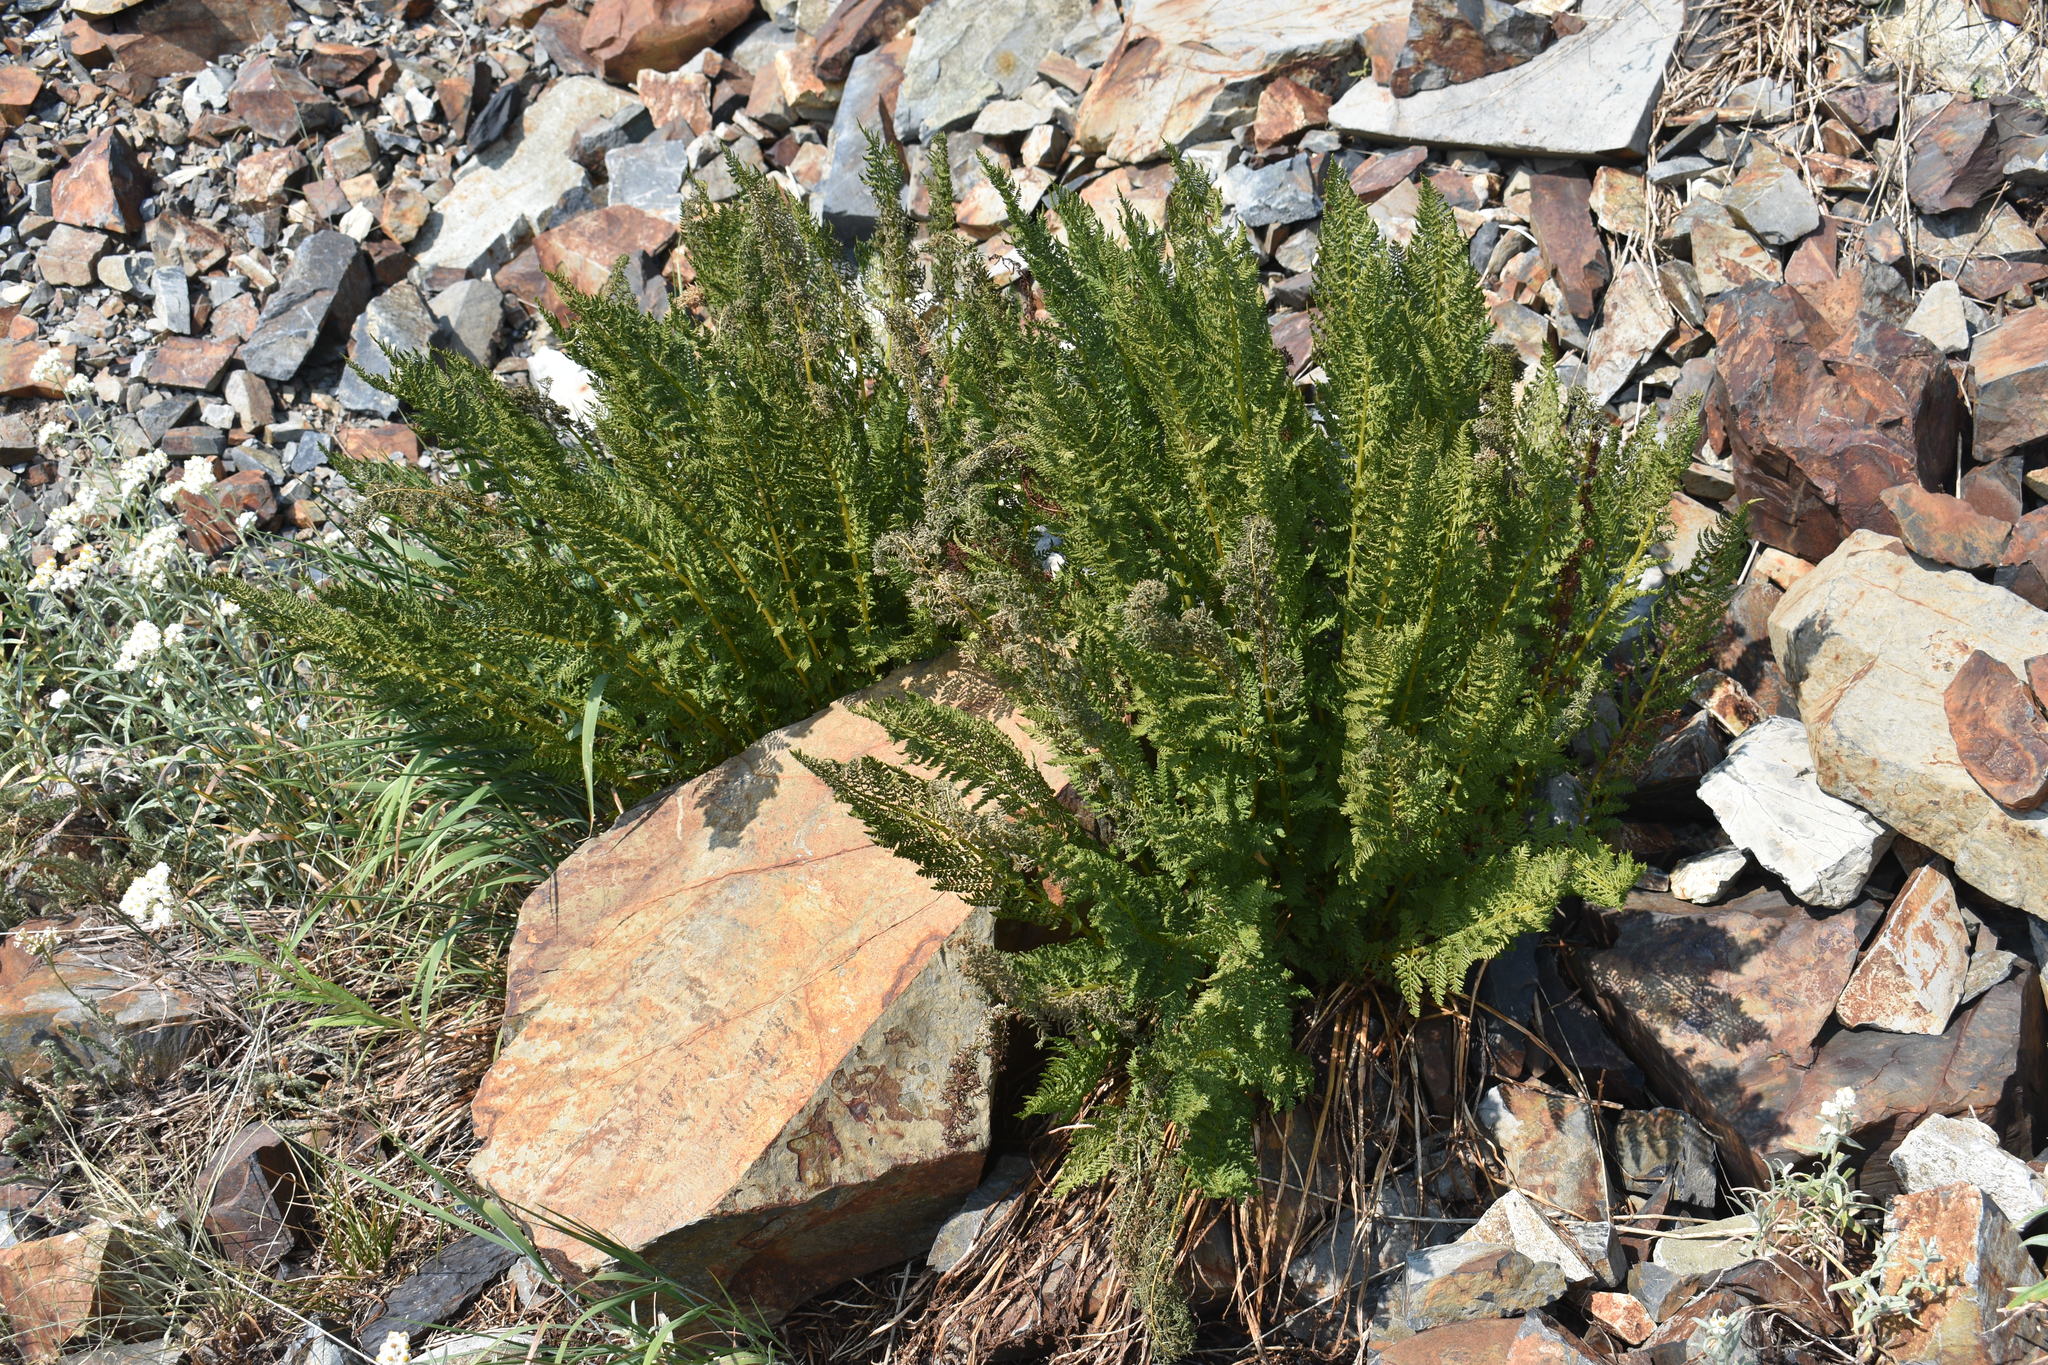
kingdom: Plantae
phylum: Tracheophyta
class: Polypodiopsida
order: Polypodiales
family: Athyriaceae
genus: Athyrium
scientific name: Athyrium americanum
